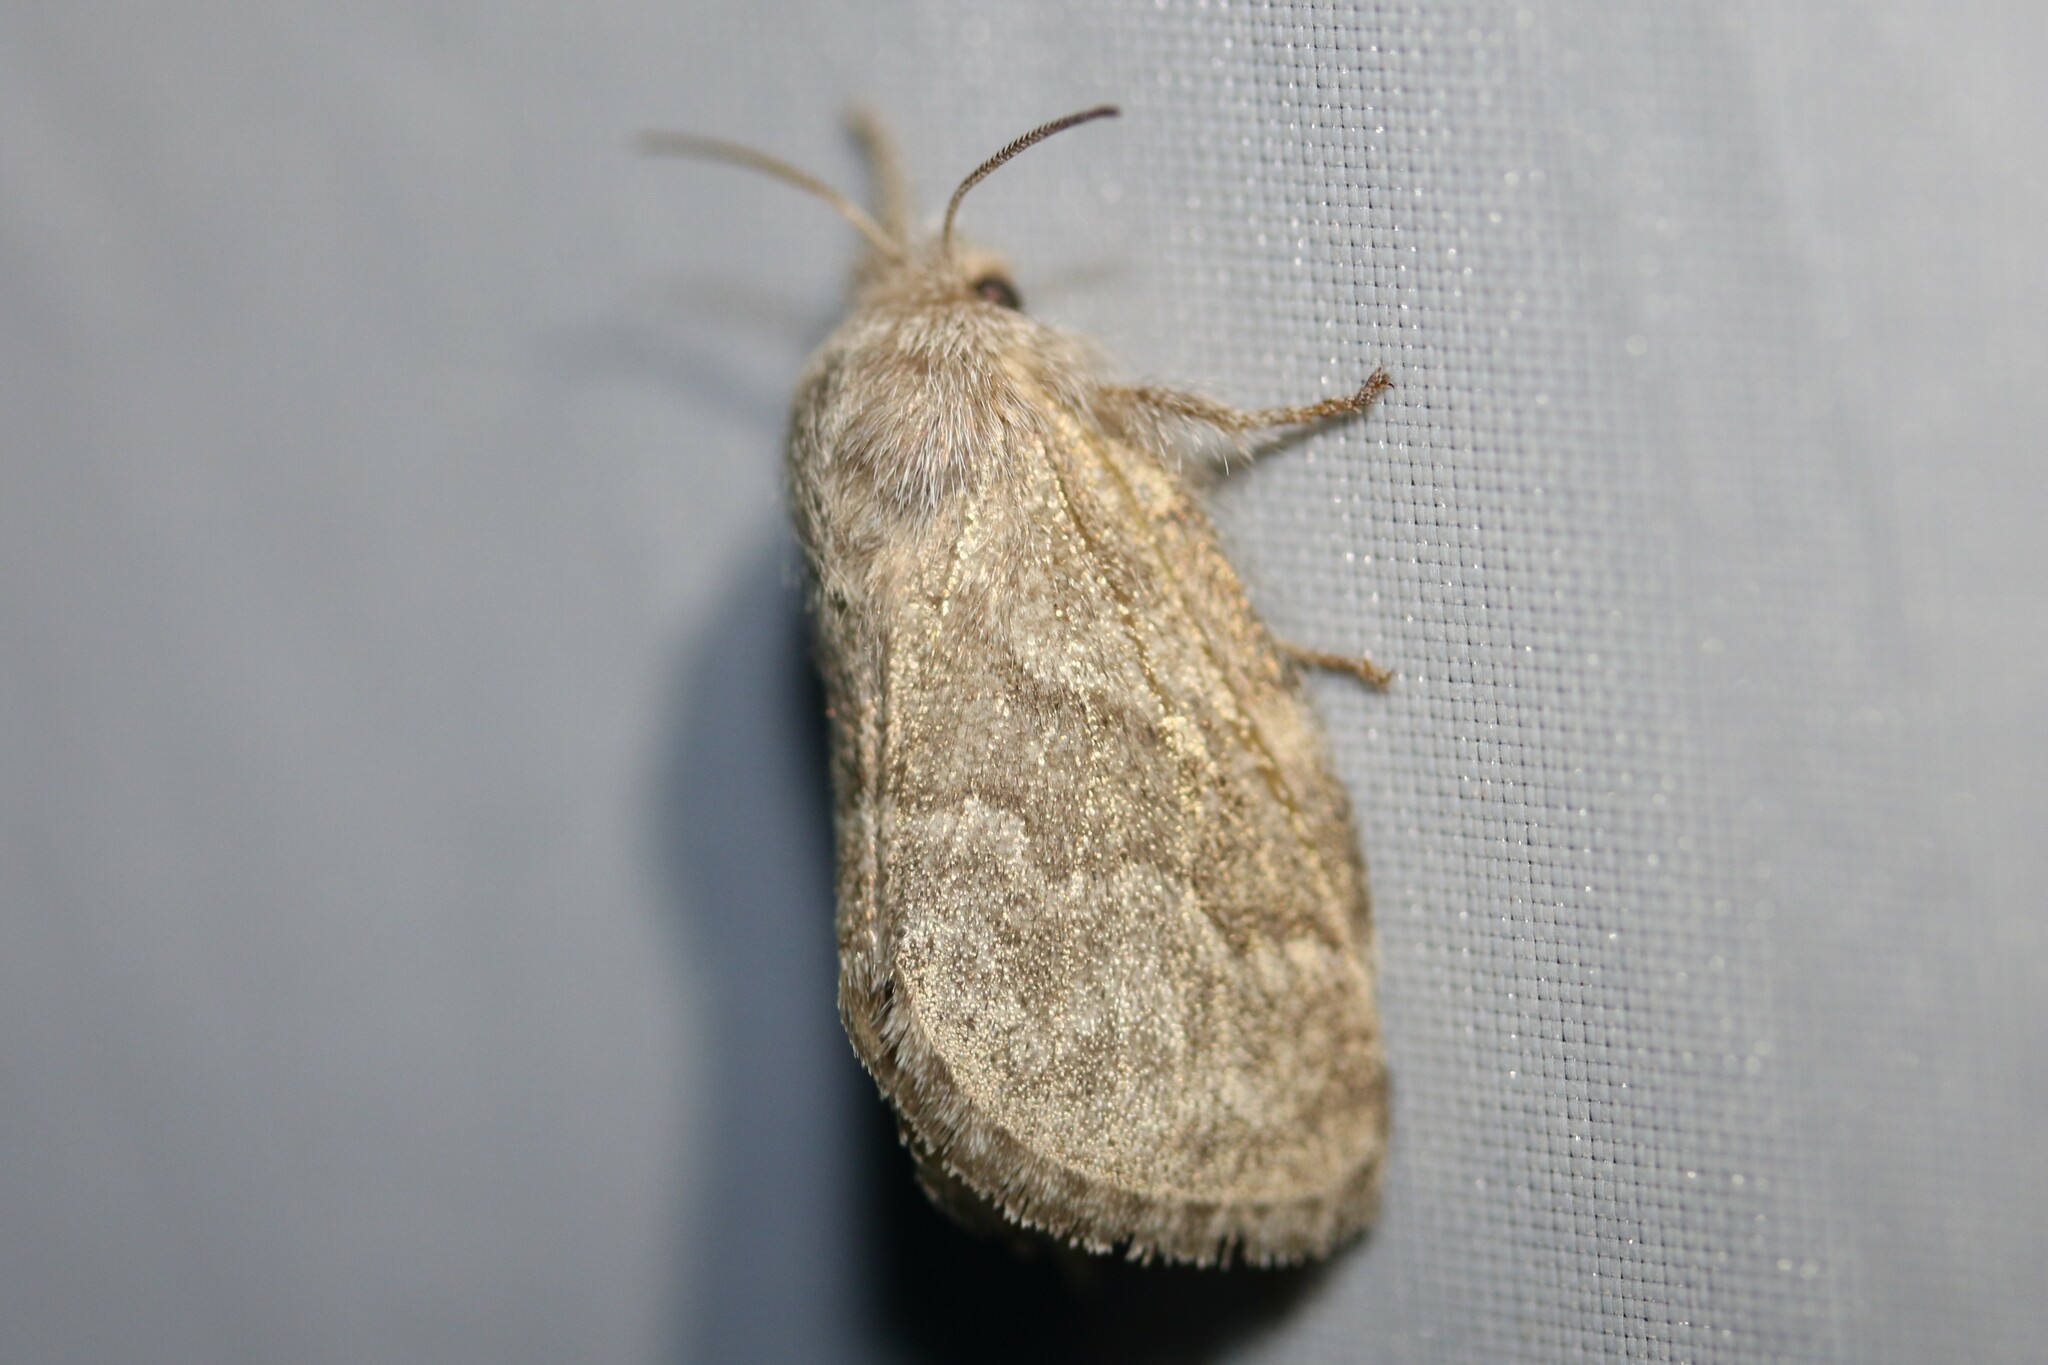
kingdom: Animalia
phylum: Arthropoda
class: Insecta
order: Lepidoptera
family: Lasiocampidae
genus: Trichiura
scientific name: Trichiura crataegi
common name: Pale eggar
